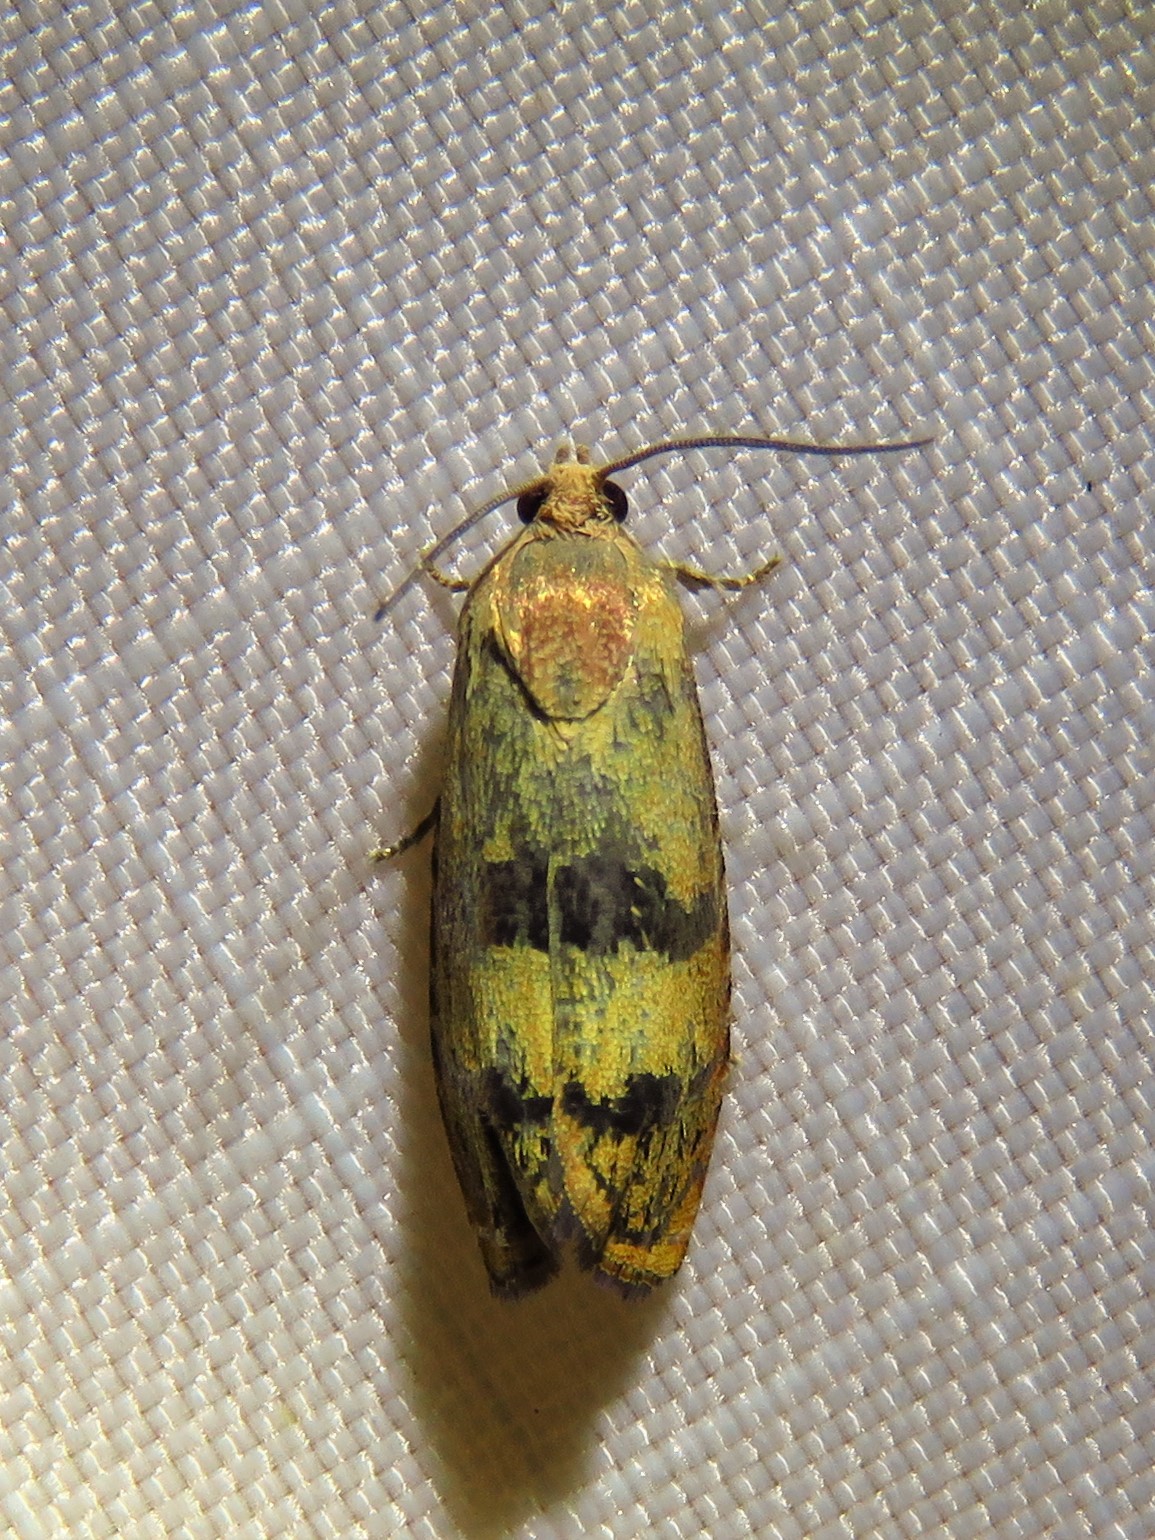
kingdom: Animalia
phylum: Arthropoda
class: Insecta
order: Lepidoptera
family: Tortricidae
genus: Cydia
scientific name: Cydia latiferreana
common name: Filbertworm moth
